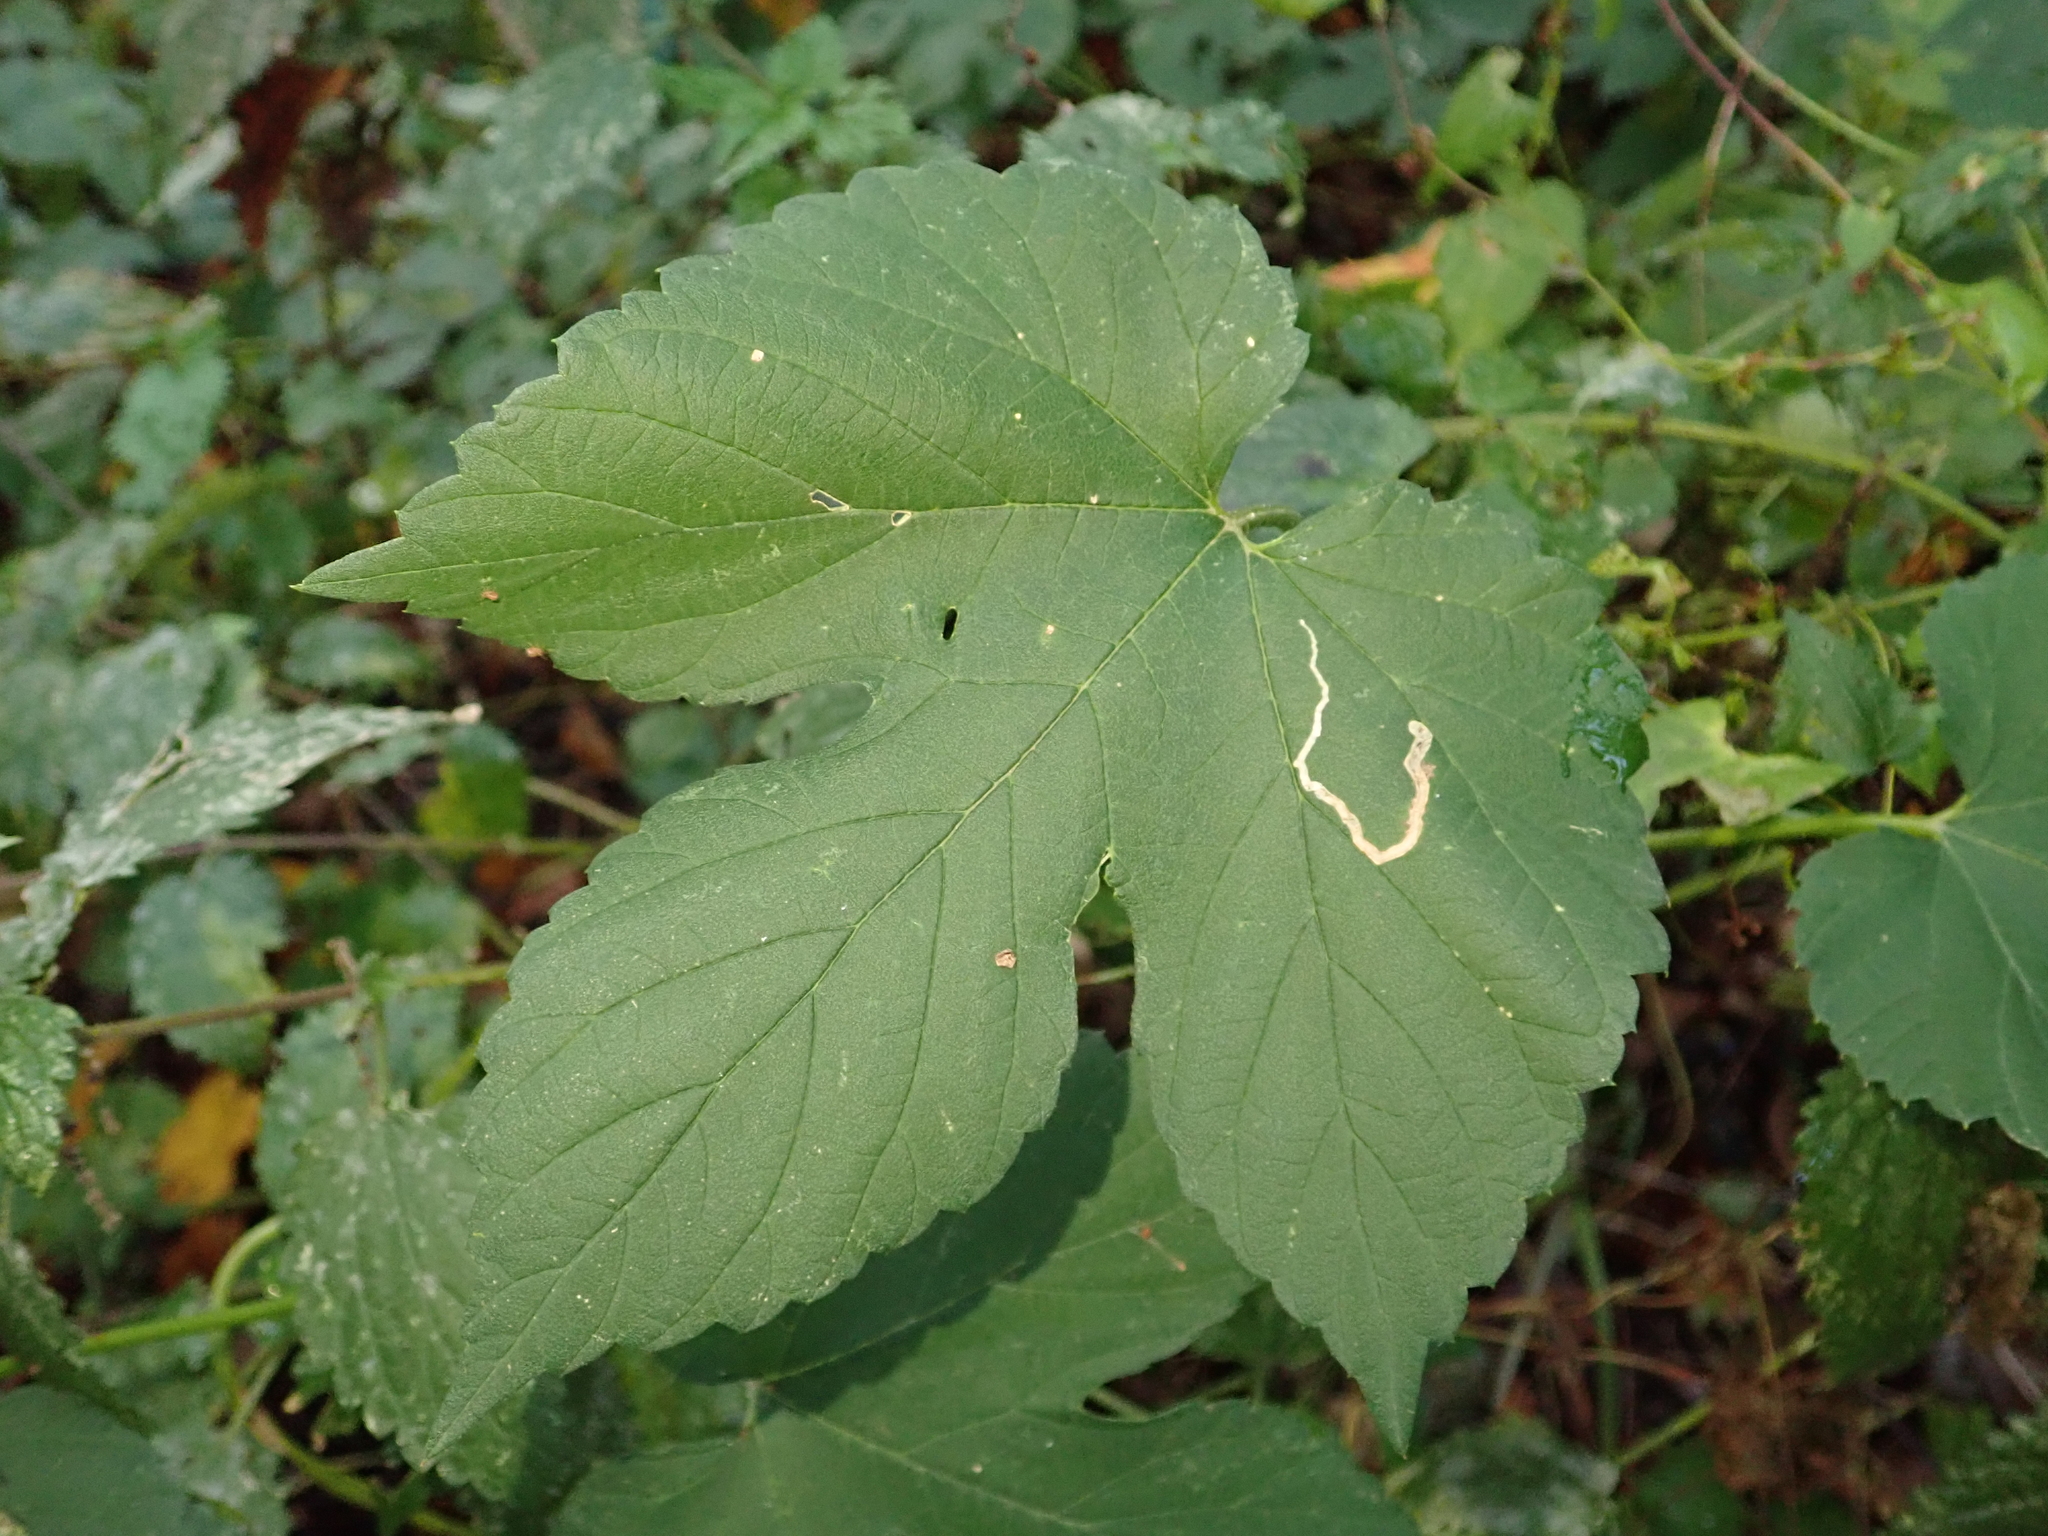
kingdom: Plantae
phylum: Tracheophyta
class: Magnoliopsida
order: Rosales
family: Cannabaceae
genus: Humulus
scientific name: Humulus lupulus
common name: Hop
